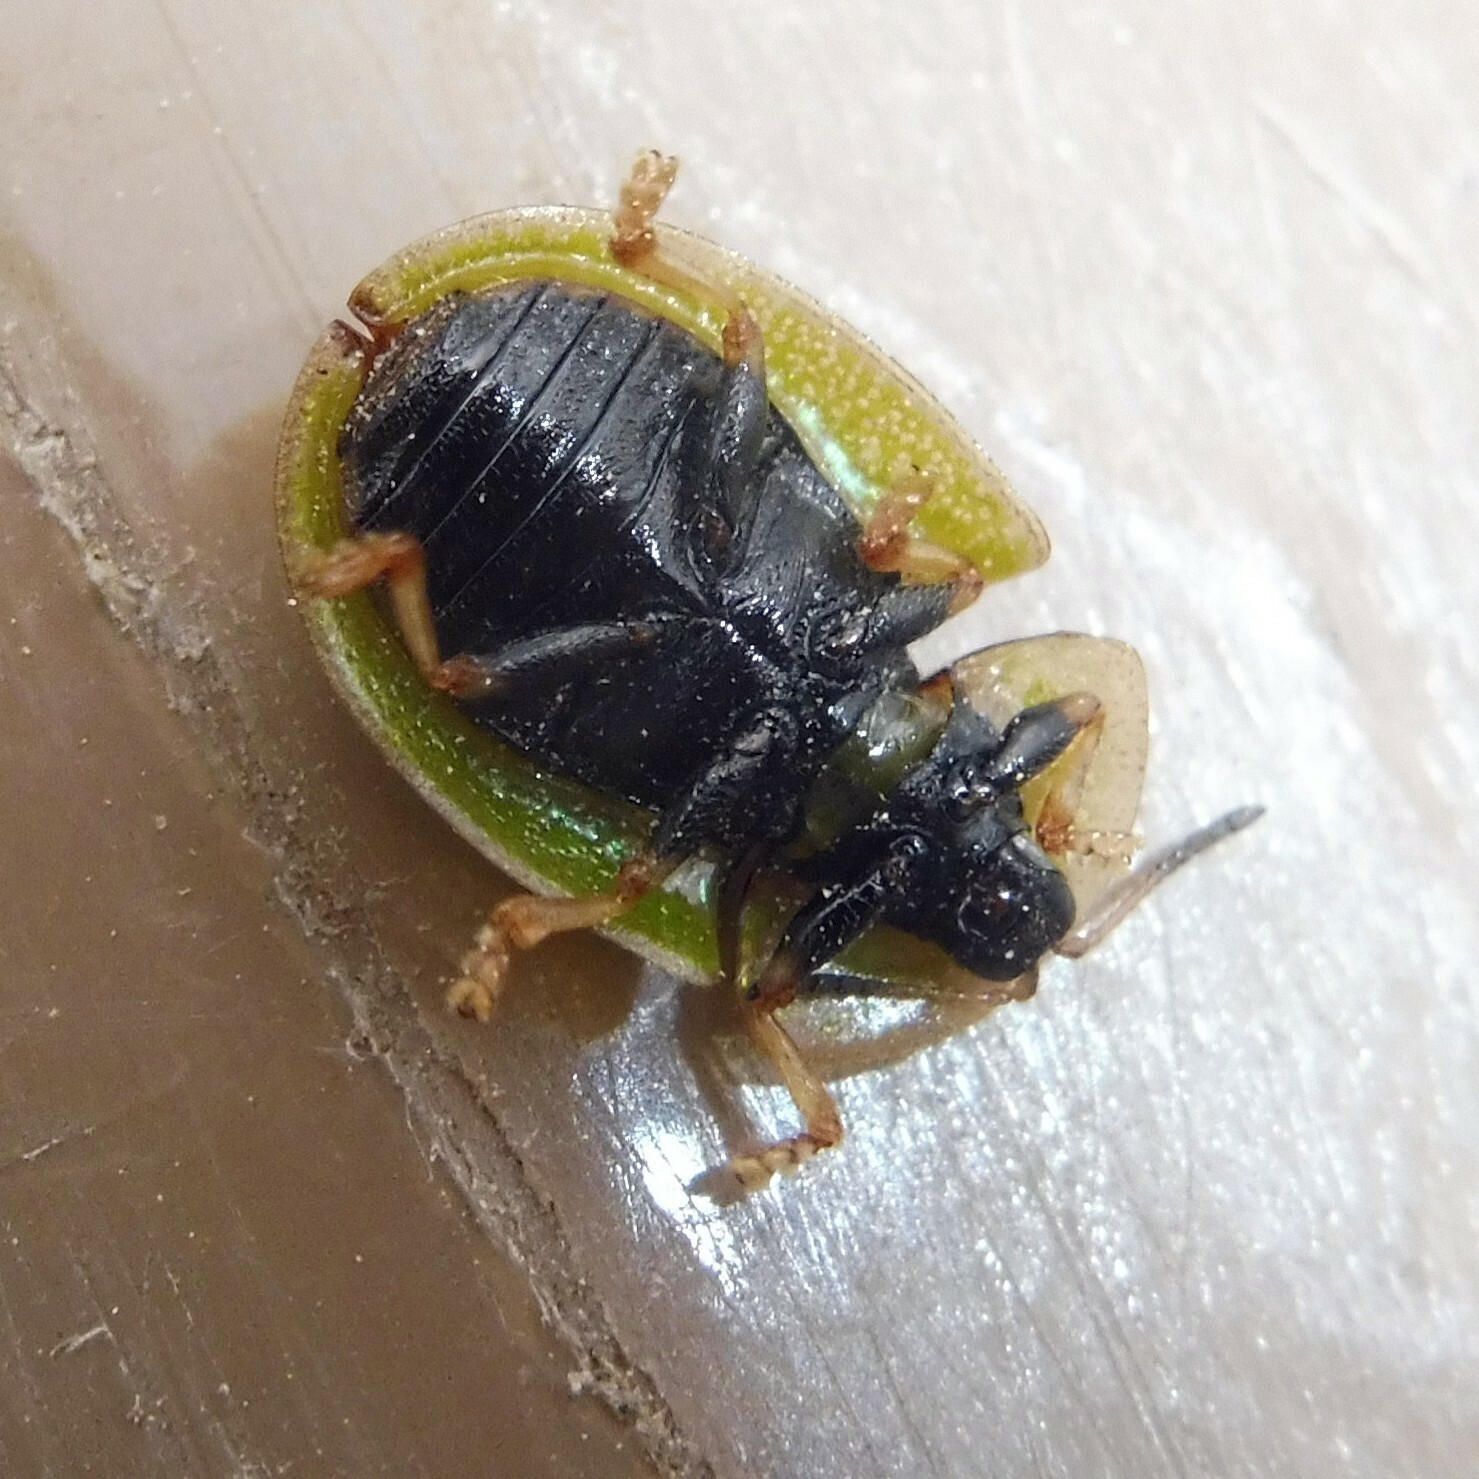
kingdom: Animalia
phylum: Arthropoda
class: Insecta
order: Coleoptera
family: Chrysomelidae
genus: Cassida
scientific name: Cassida vibex
